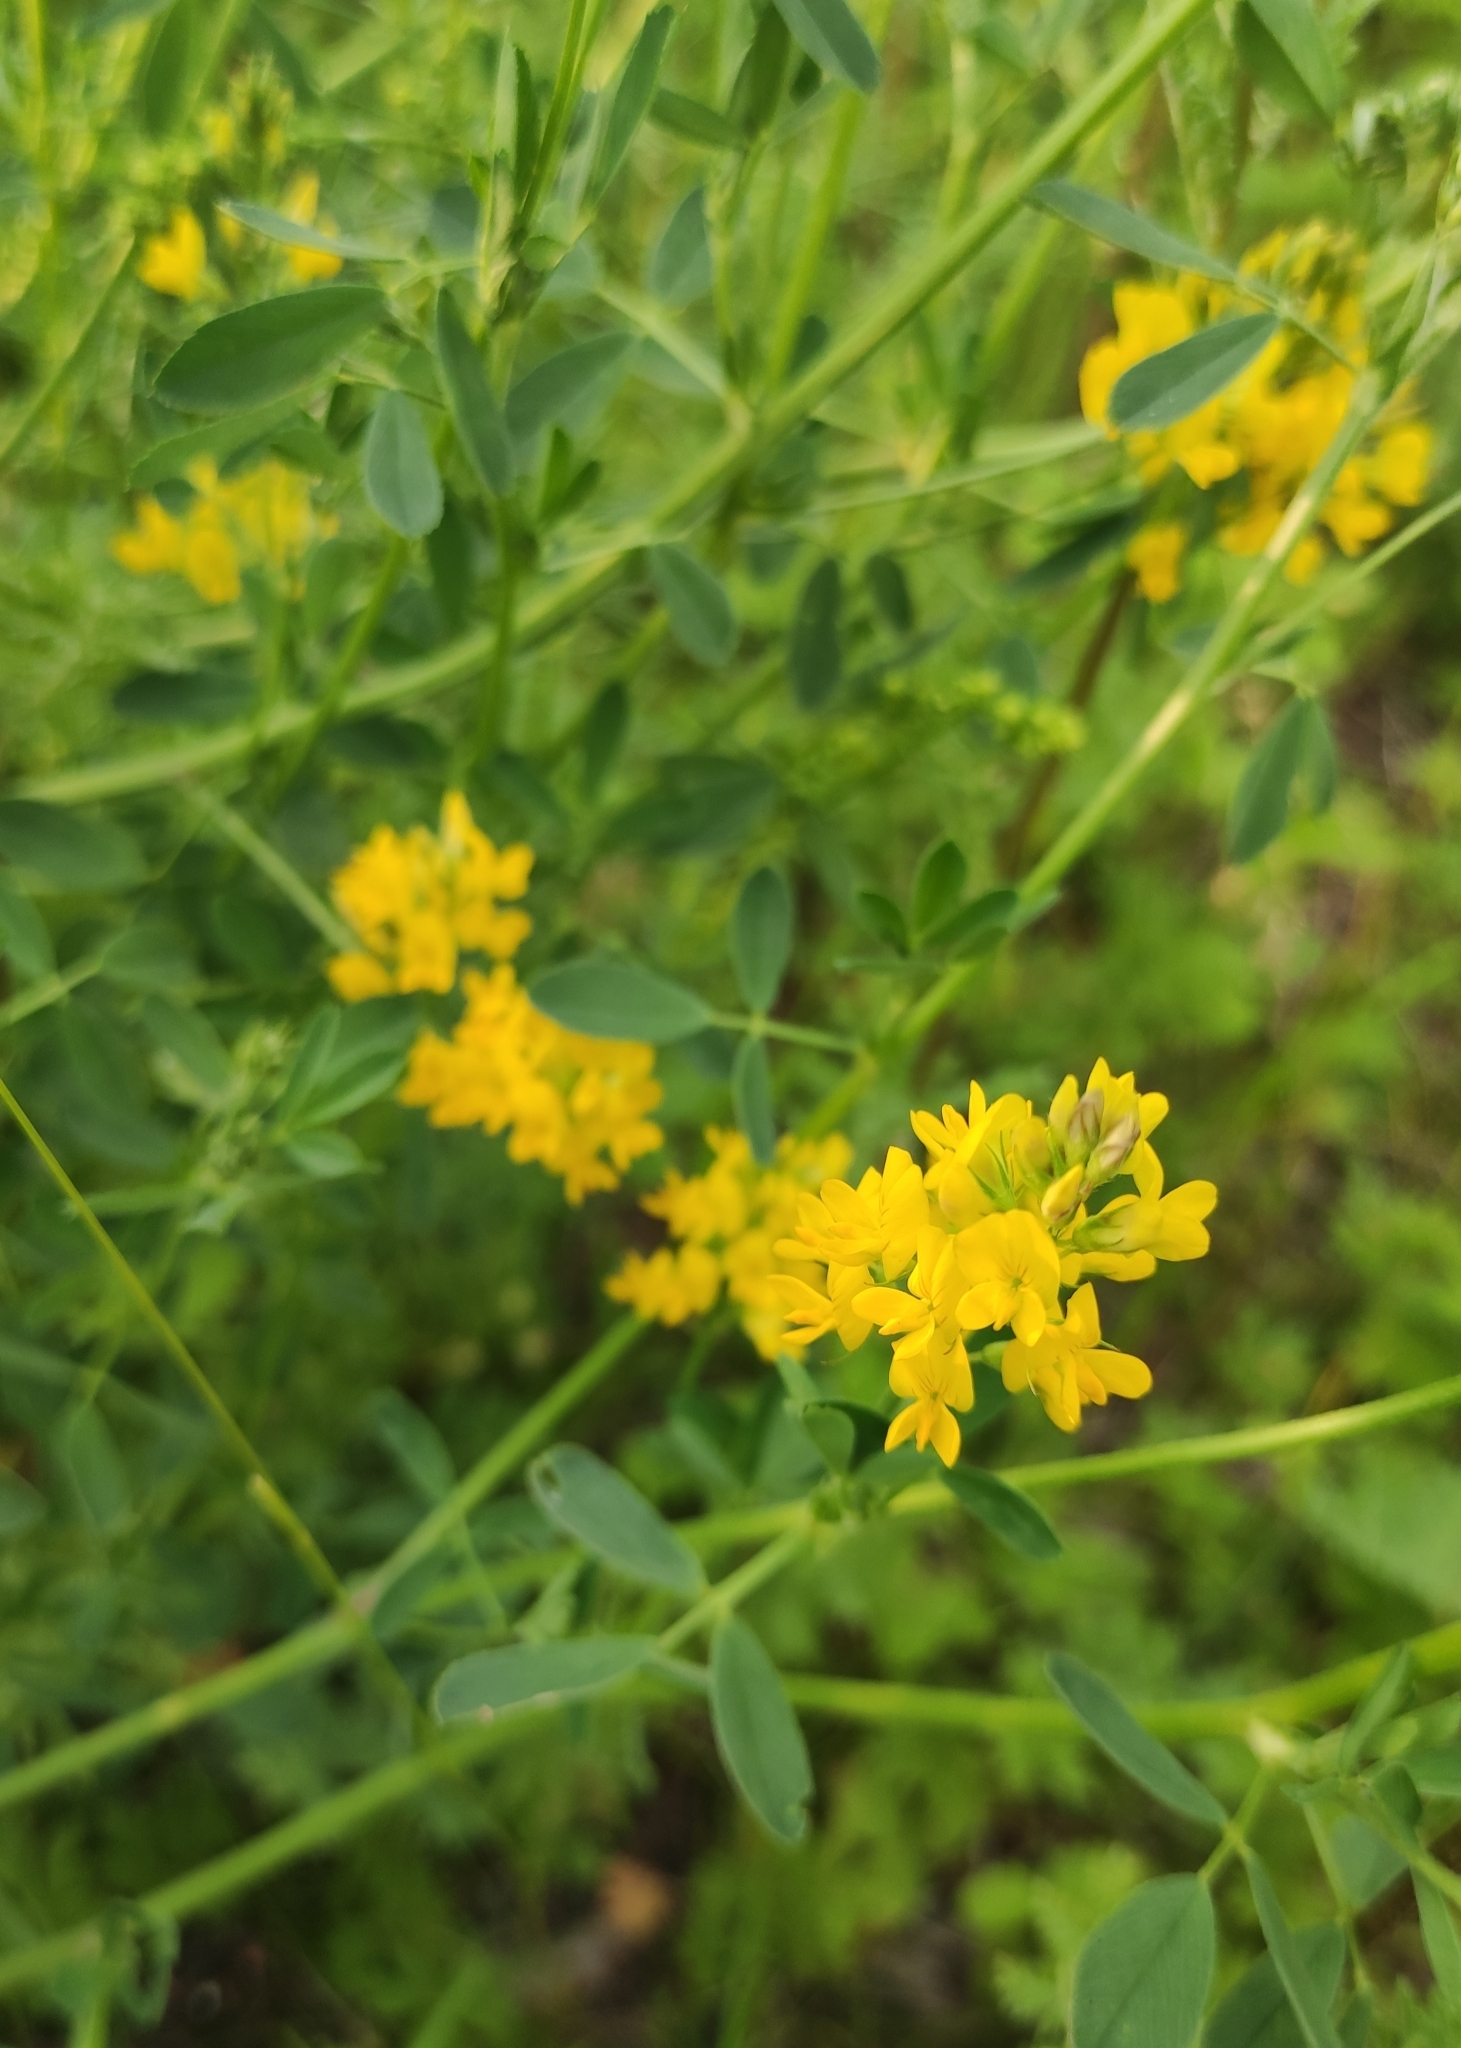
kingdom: Plantae
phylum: Tracheophyta
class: Magnoliopsida
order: Fabales
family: Fabaceae
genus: Medicago
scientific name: Medicago falcata
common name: Sickle medick
